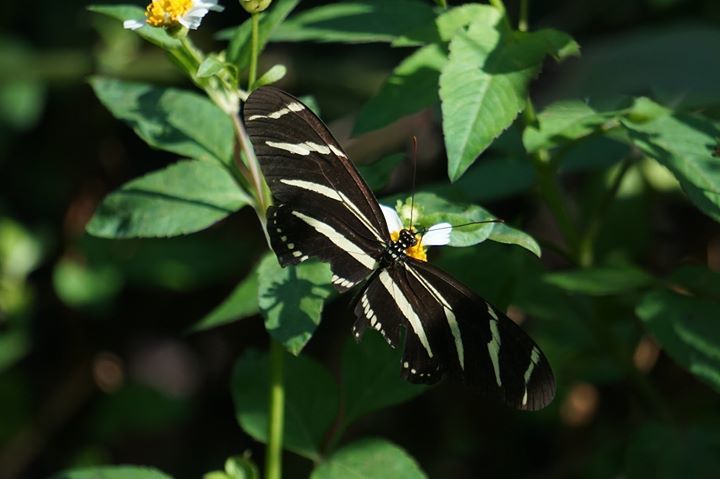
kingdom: Animalia
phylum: Arthropoda
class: Insecta
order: Lepidoptera
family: Nymphalidae
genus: Heliconius
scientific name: Heliconius charithonia
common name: Zebra long wing
